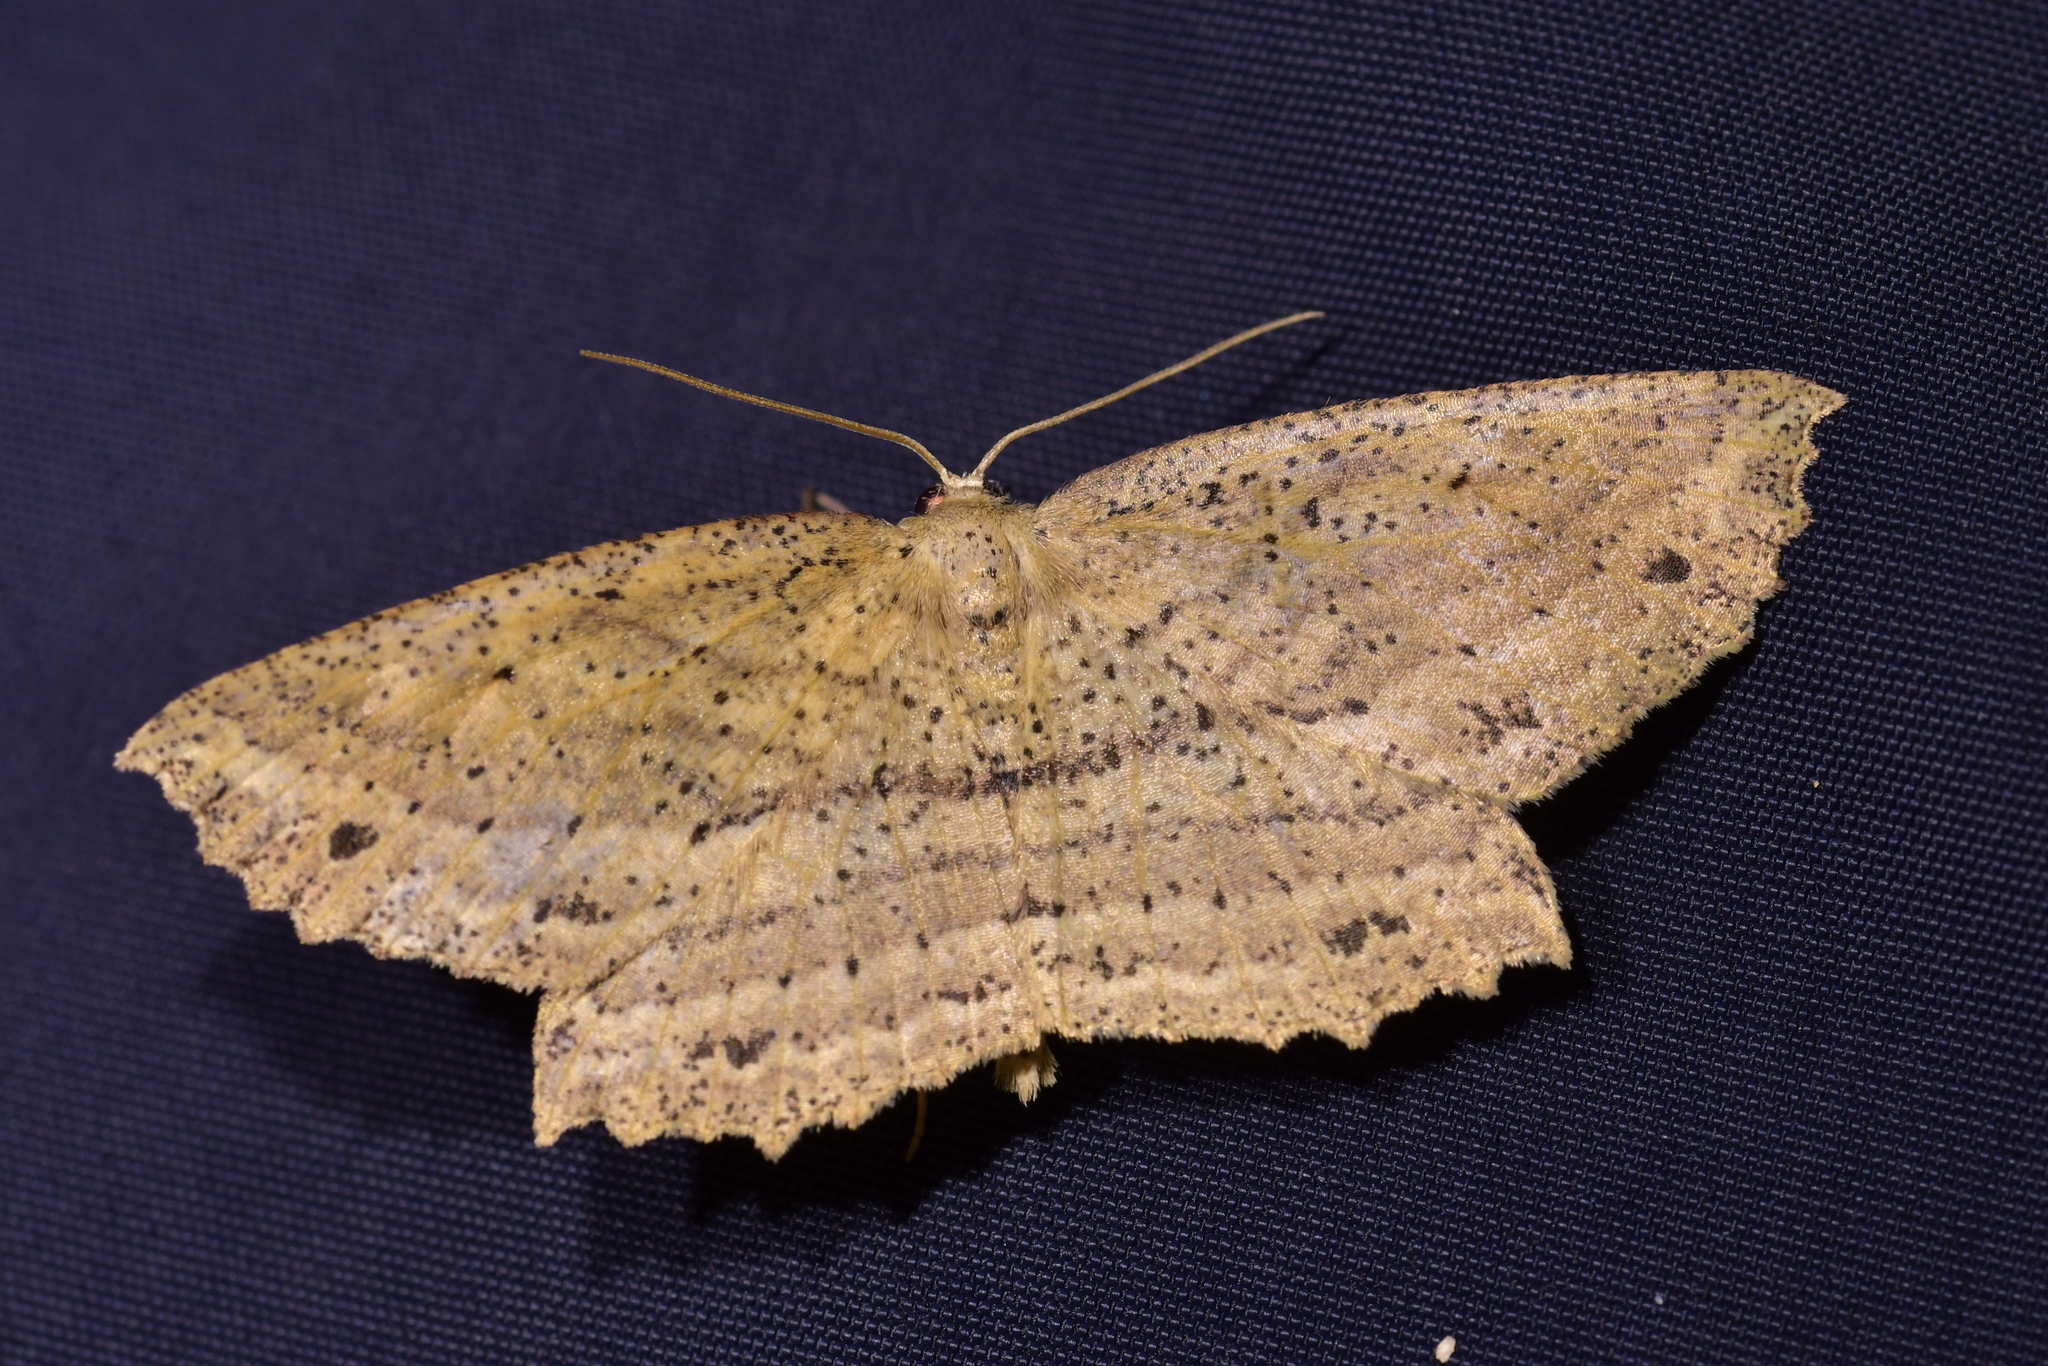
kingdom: Animalia
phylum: Arthropoda
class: Insecta
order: Lepidoptera
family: Geometridae
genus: Xyridacma
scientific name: Xyridacma veronicae
